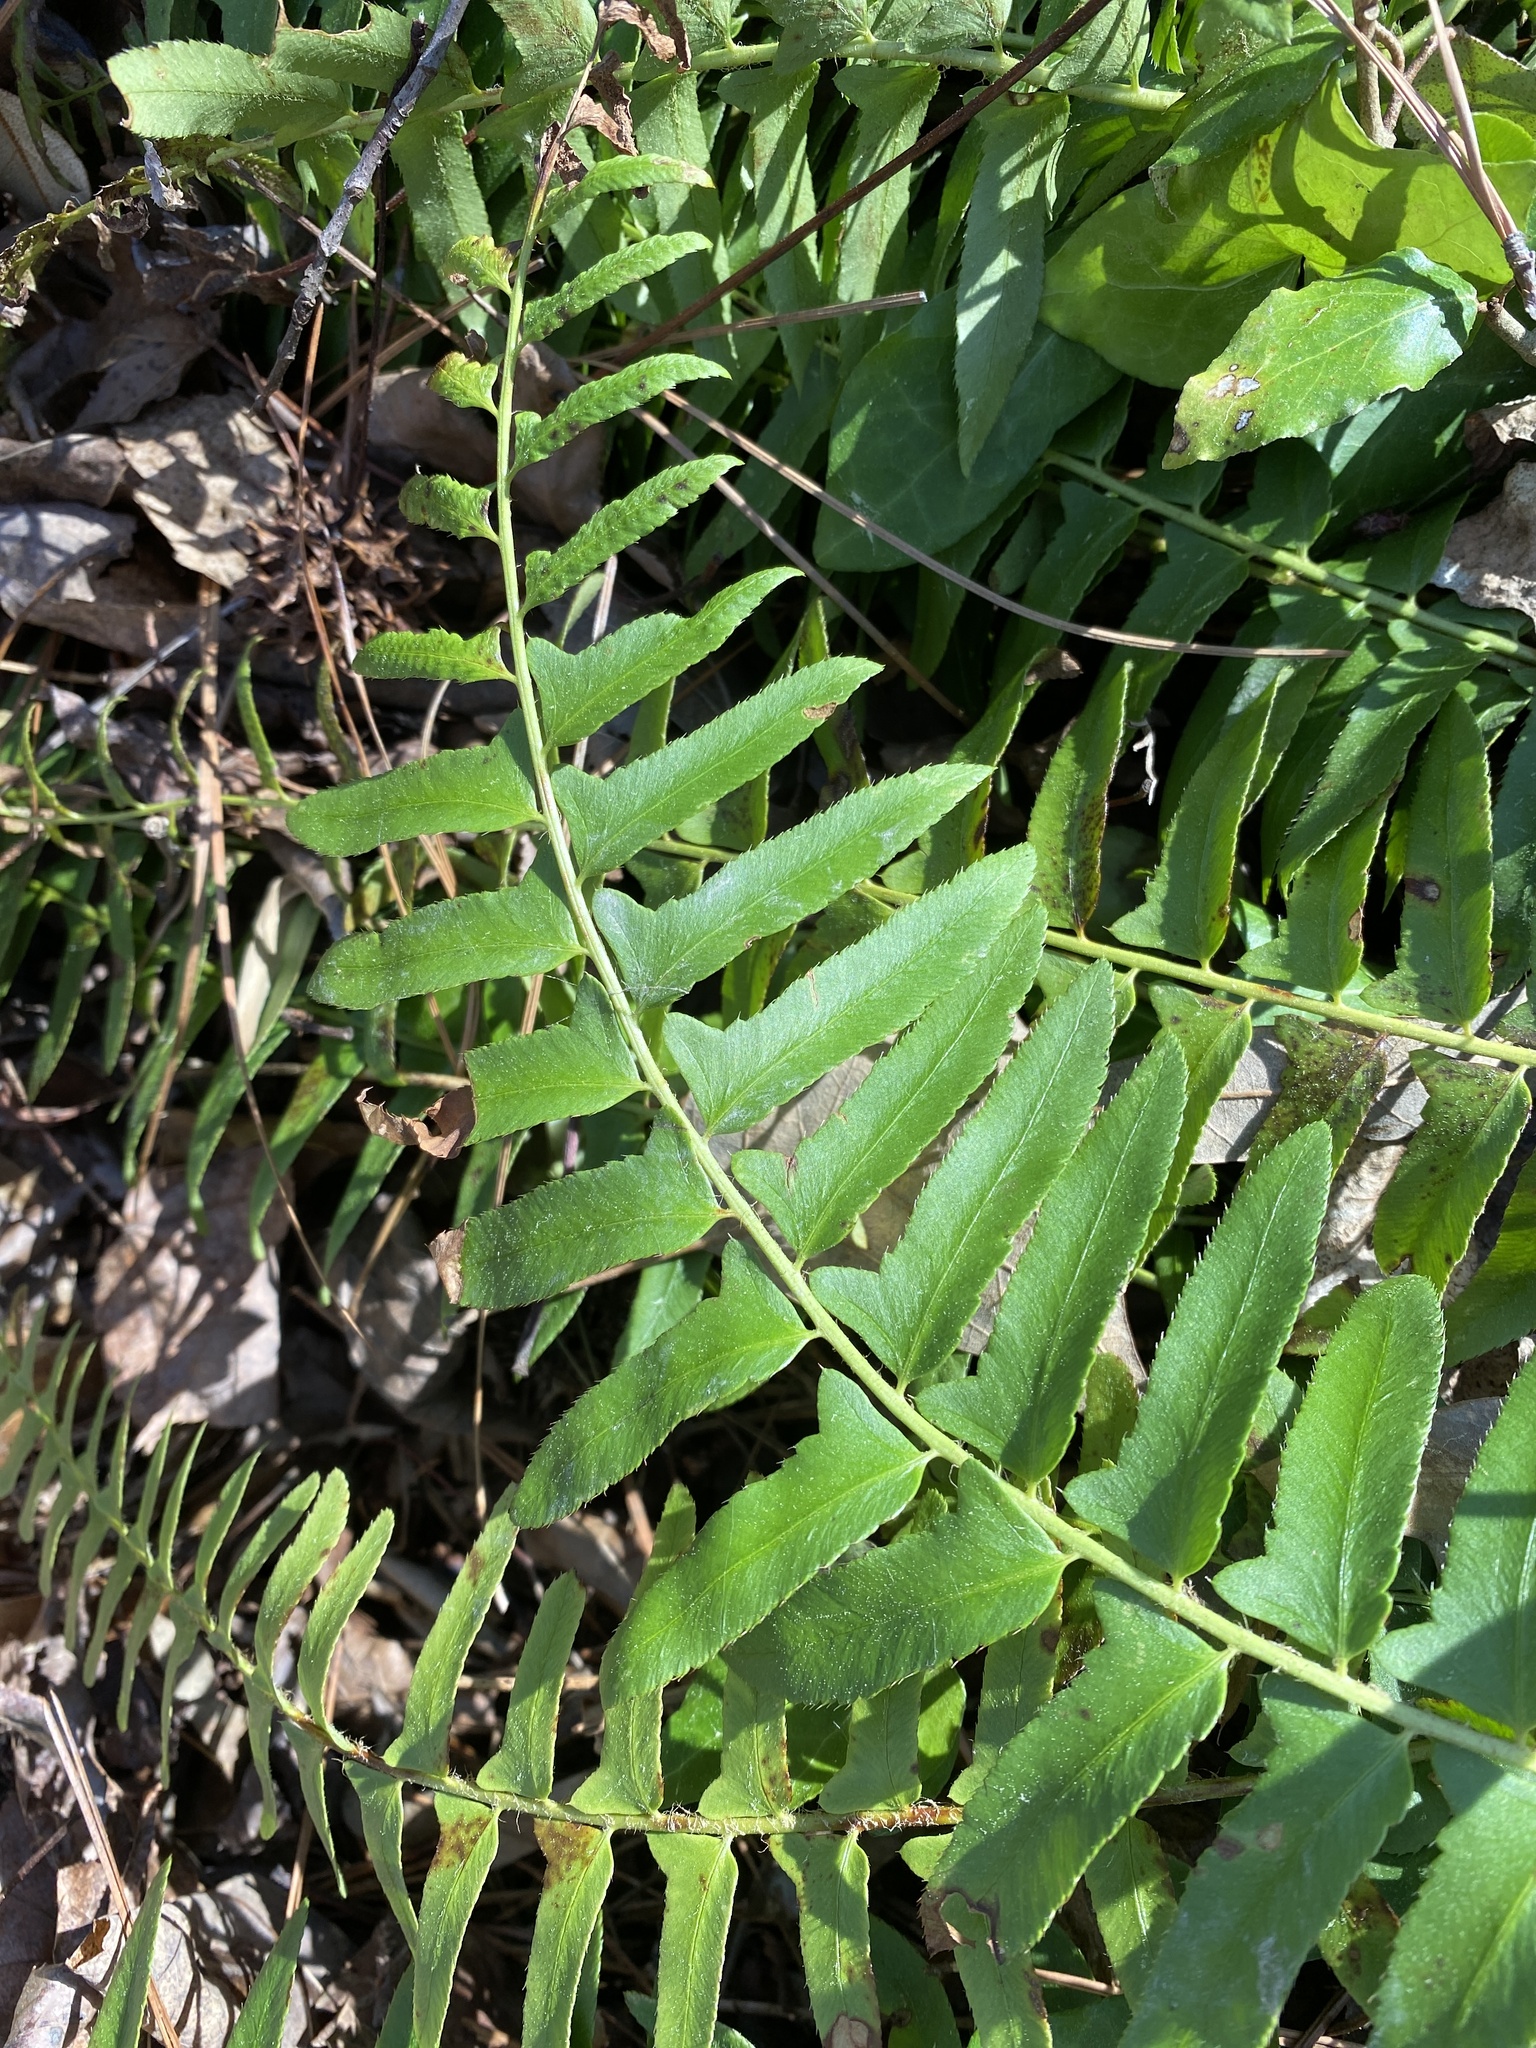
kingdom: Plantae
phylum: Tracheophyta
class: Polypodiopsida
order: Polypodiales
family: Dryopteridaceae
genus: Polystichum
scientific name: Polystichum acrostichoides
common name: Christmas fern
